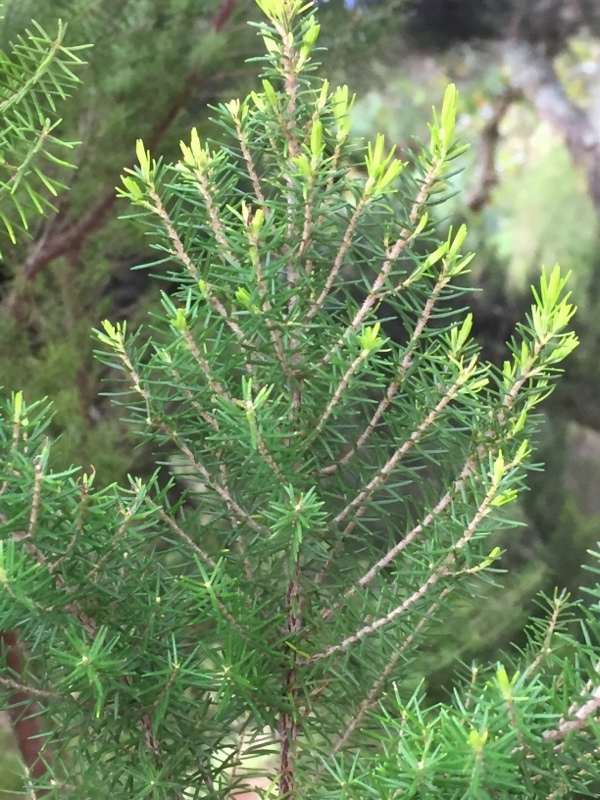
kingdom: Plantae
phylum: Tracheophyta
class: Magnoliopsida
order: Ericales
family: Ericaceae
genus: Erica
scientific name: Erica canariensis
